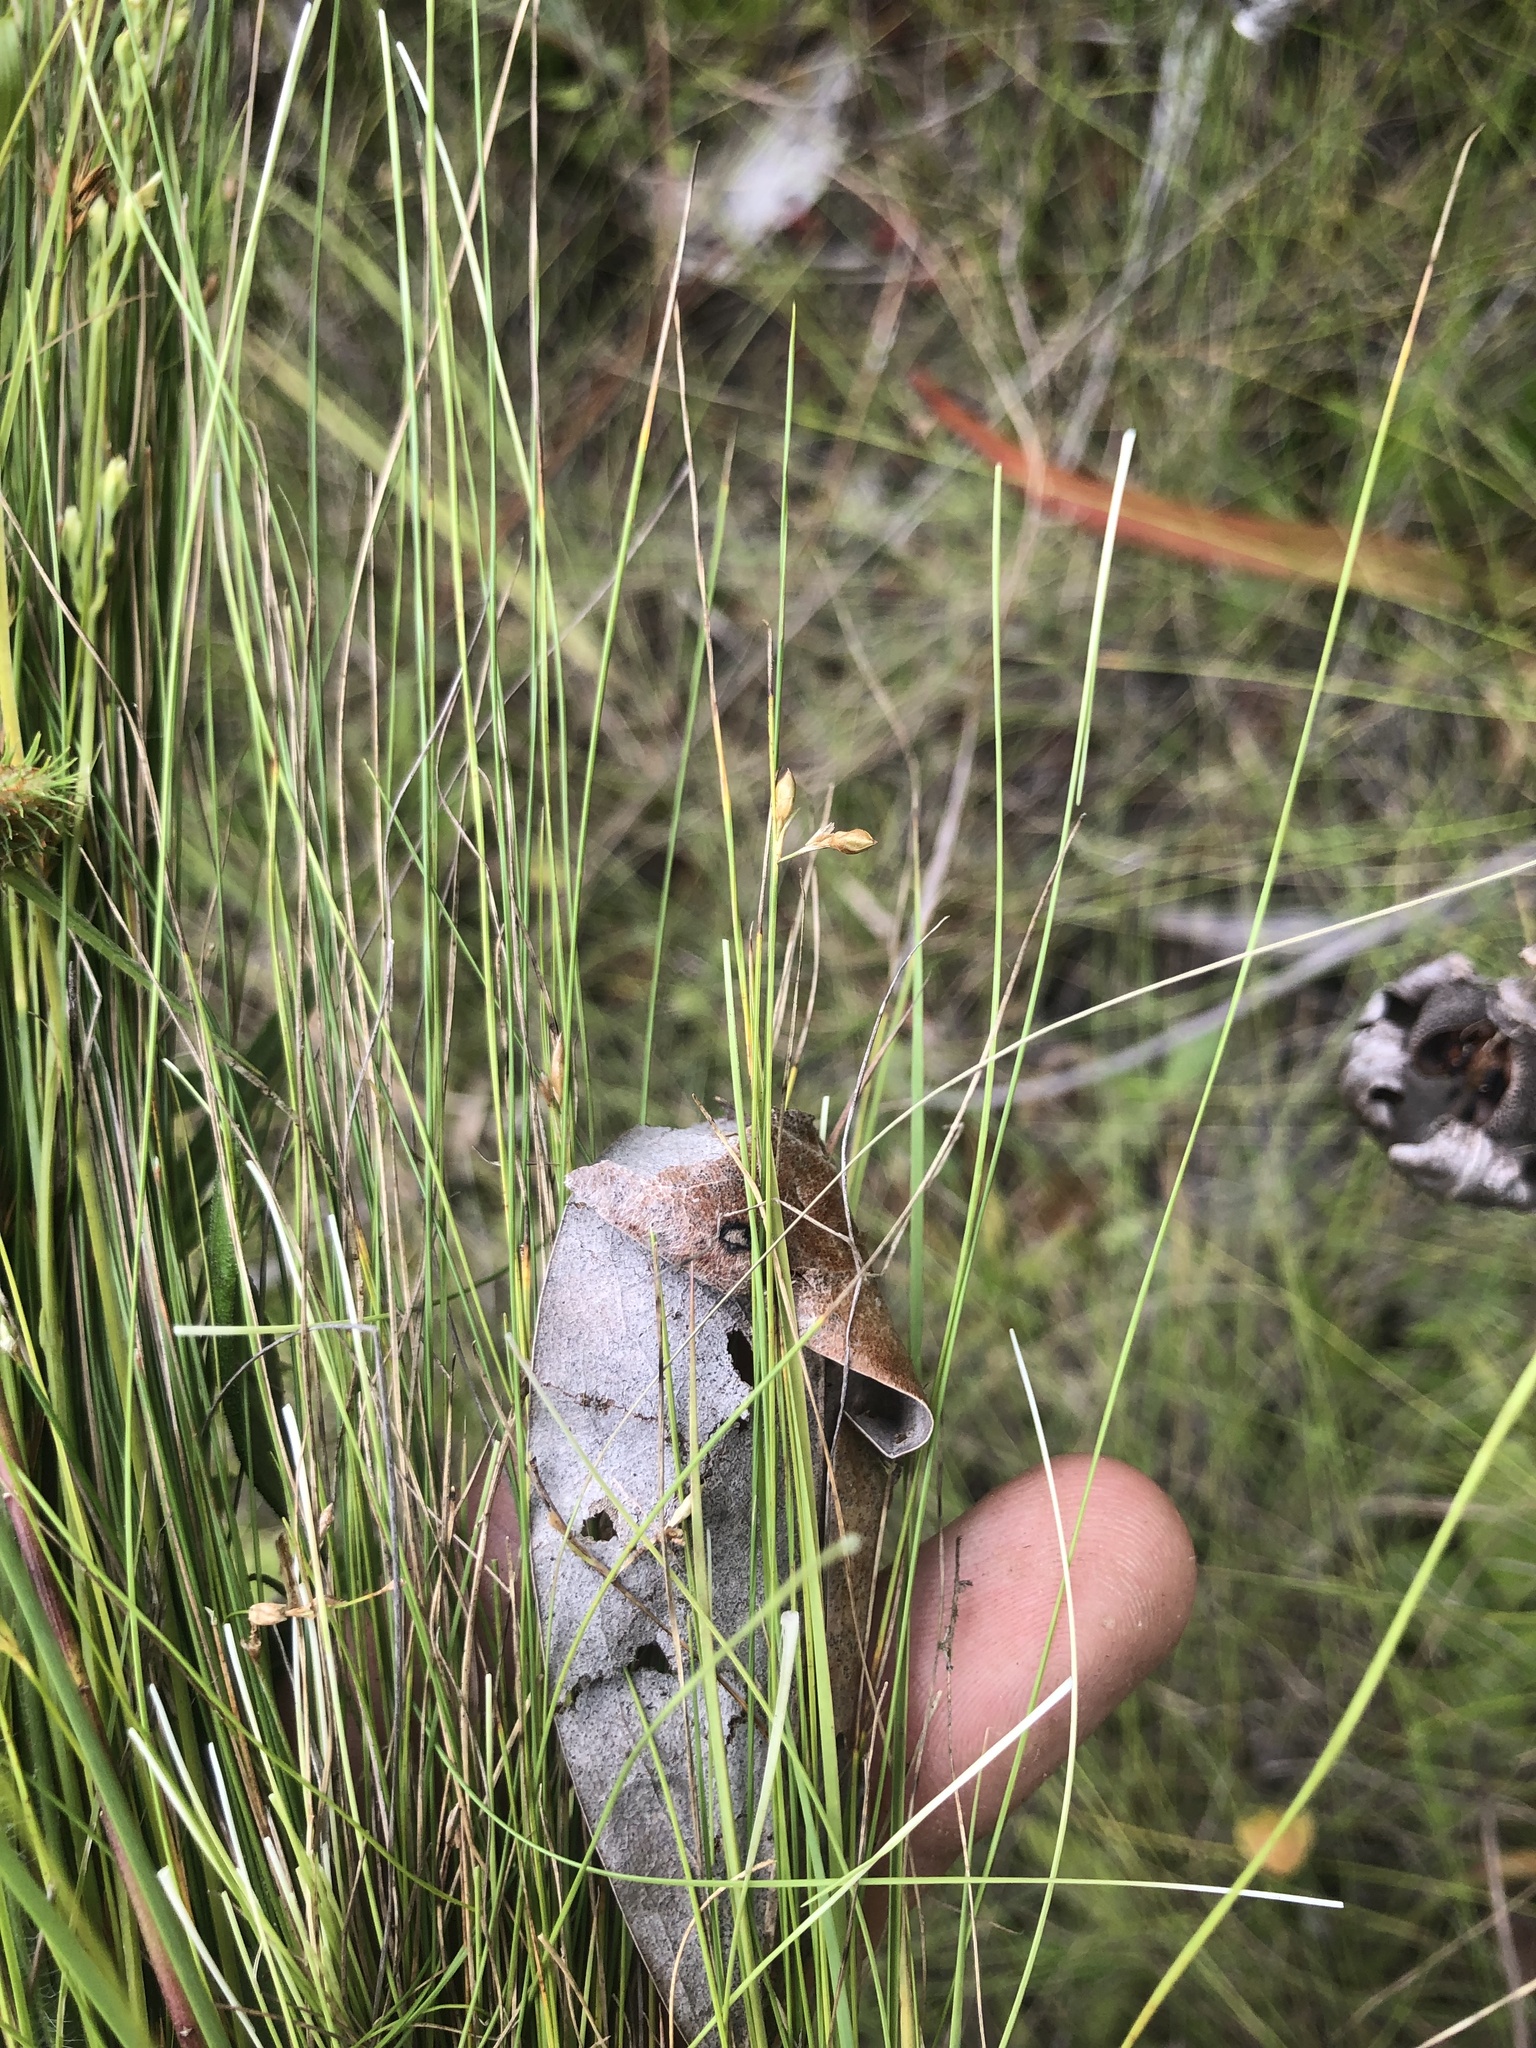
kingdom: Plantae
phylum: Tracheophyta
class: Liliopsida
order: Poales
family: Cyperaceae
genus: Rhynchospora
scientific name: Rhynchospora rariflora
